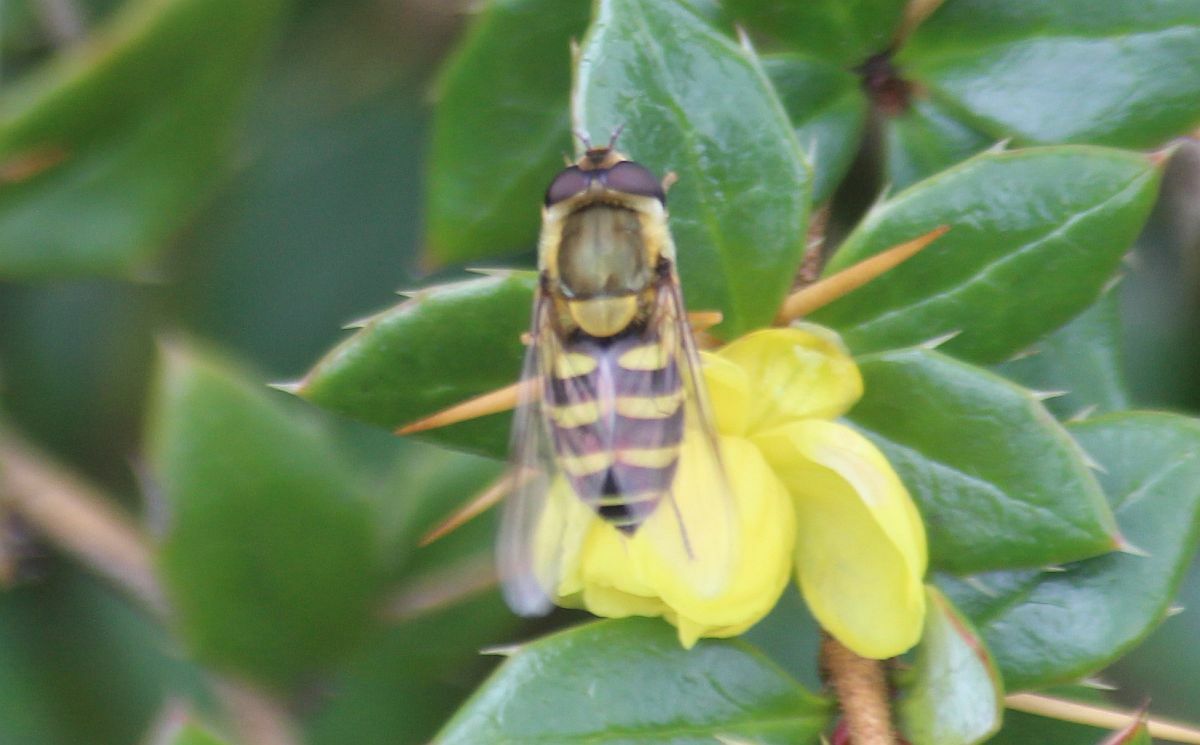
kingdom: Animalia
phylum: Arthropoda
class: Insecta
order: Diptera
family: Syrphidae
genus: Syrphus
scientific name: Syrphus
